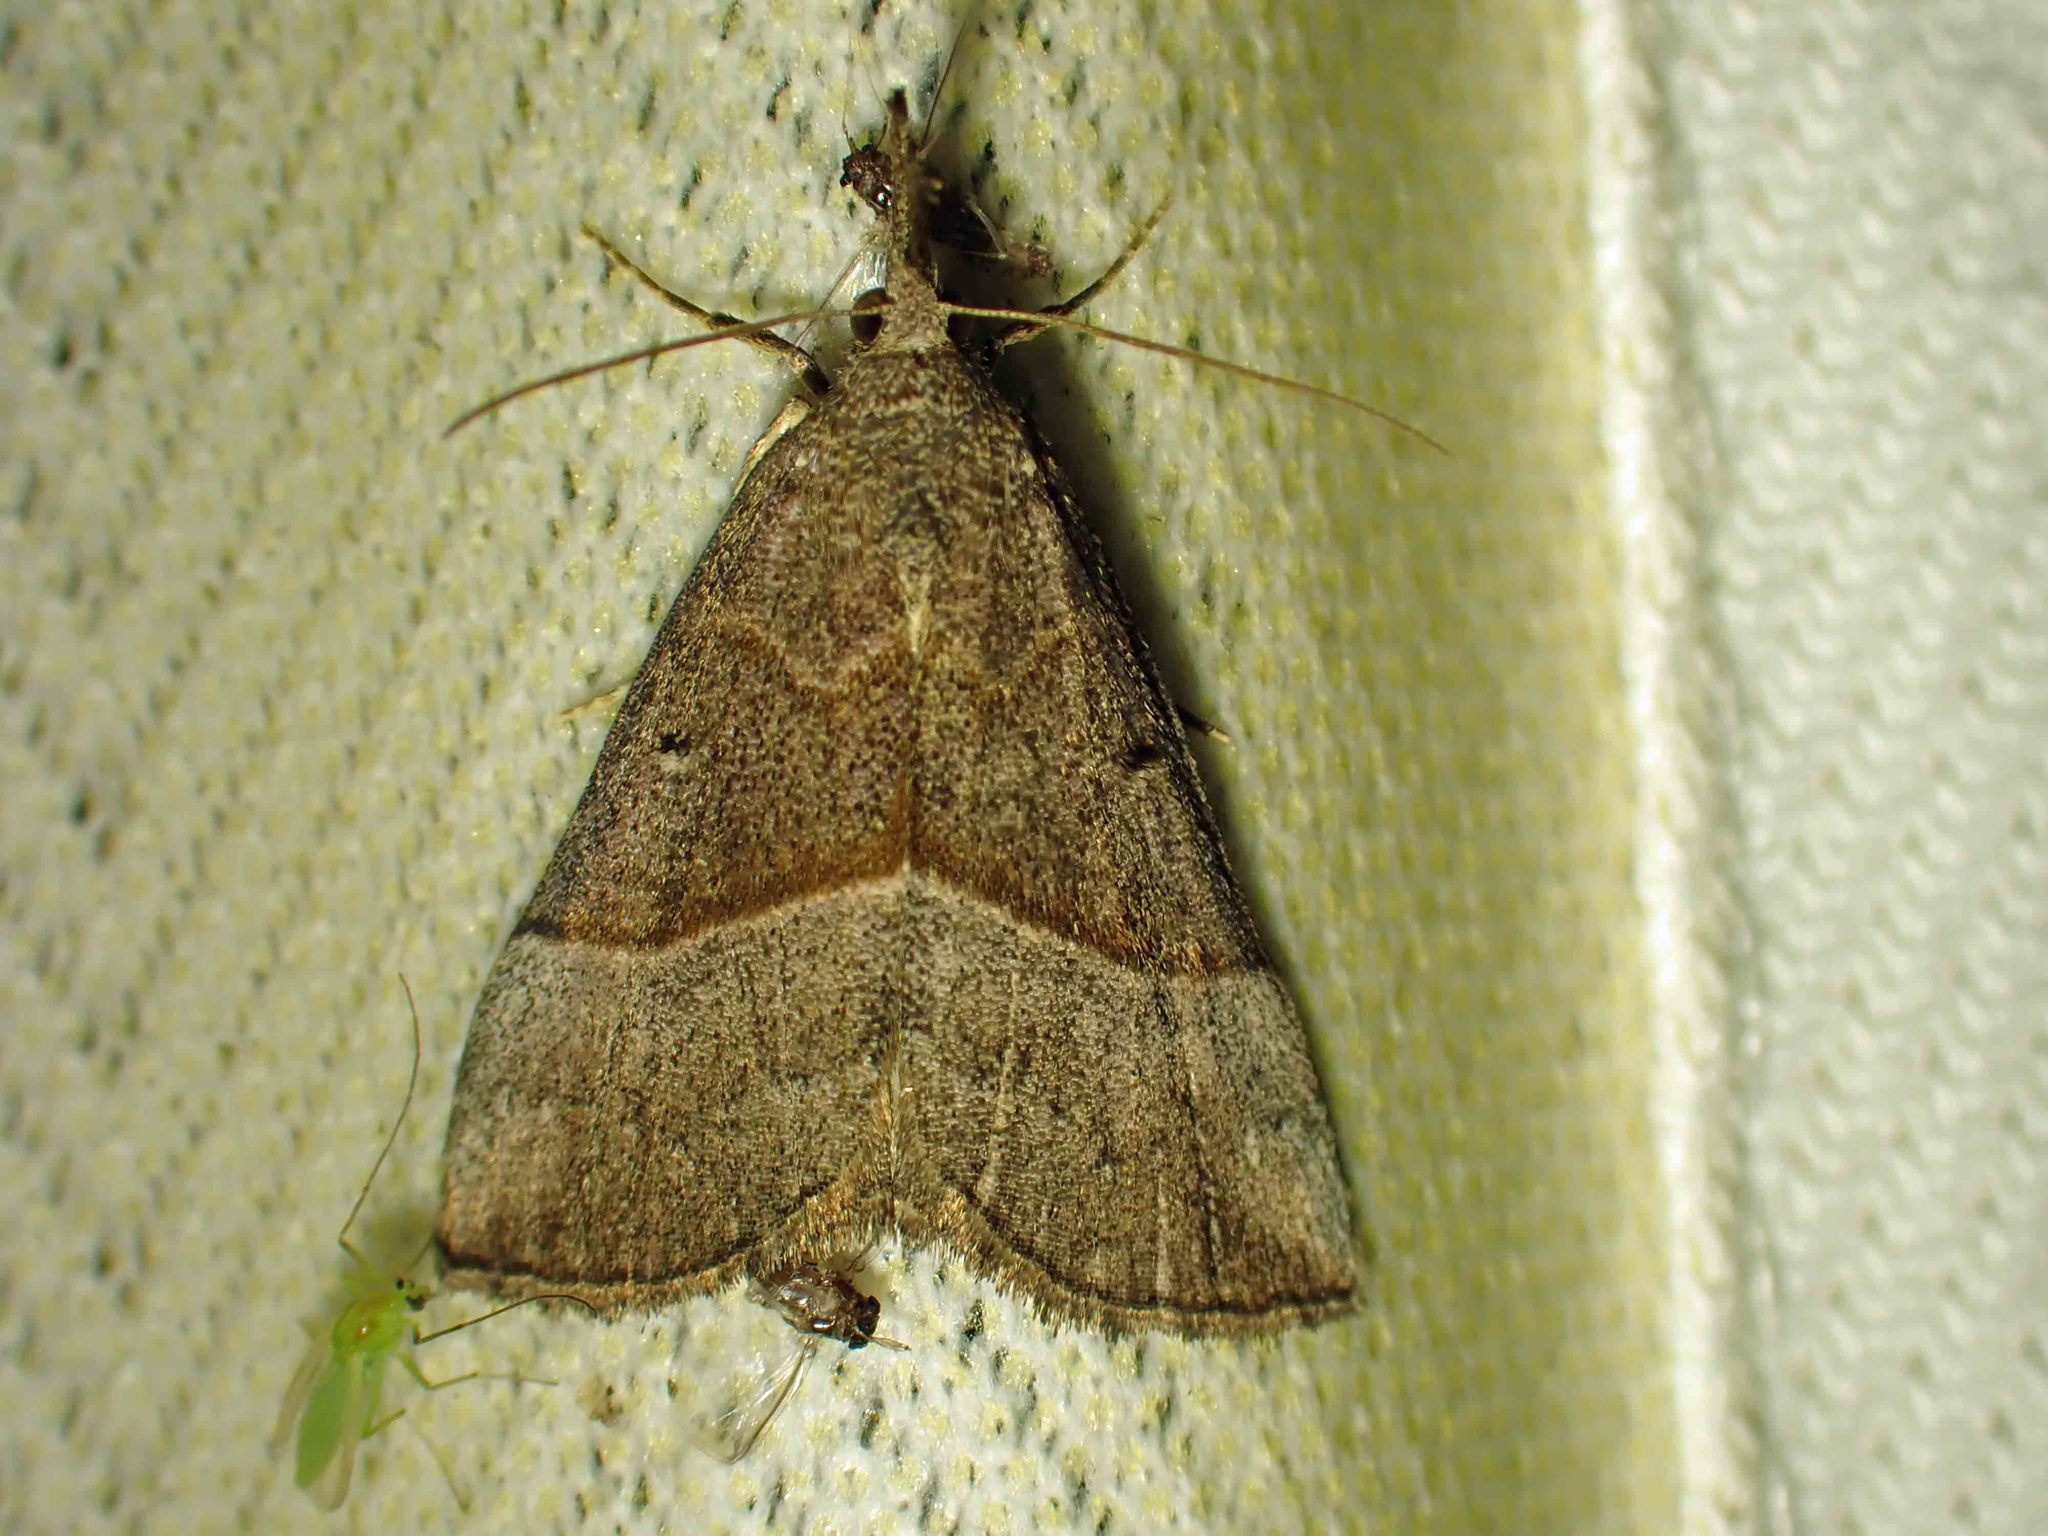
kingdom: Animalia
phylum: Arthropoda
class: Insecta
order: Lepidoptera
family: Erebidae
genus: Hypena
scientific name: Hypena eductalis
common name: Red-footed snout
